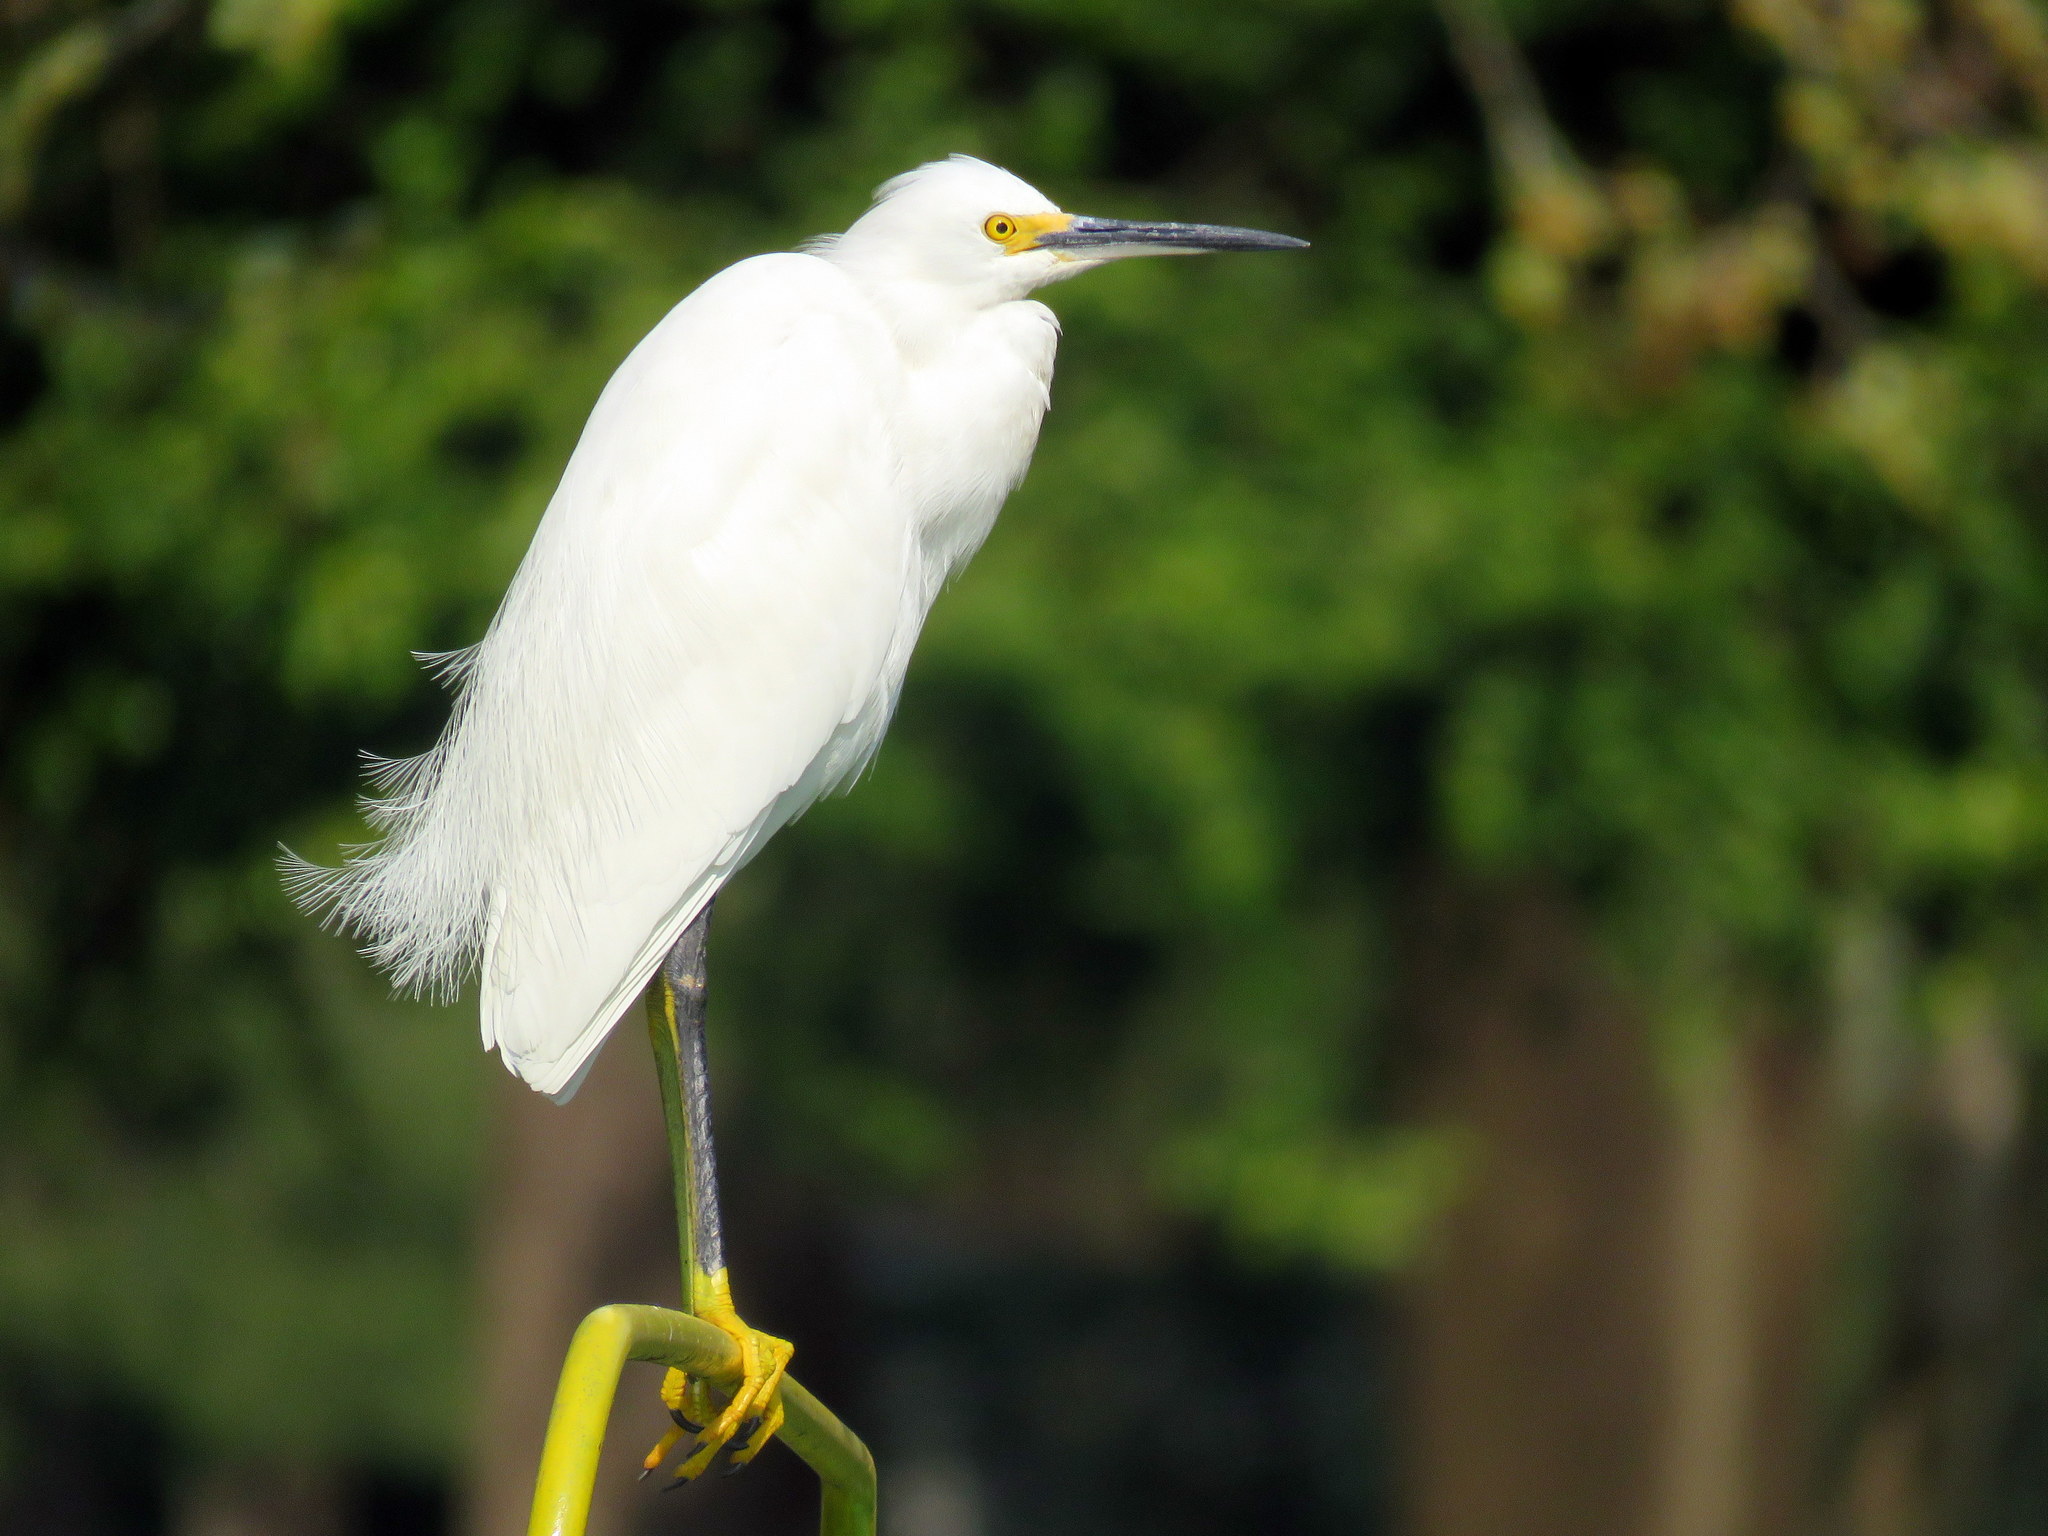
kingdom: Animalia
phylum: Chordata
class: Aves
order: Pelecaniformes
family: Ardeidae
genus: Egretta
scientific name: Egretta thula
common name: Snowy egret
